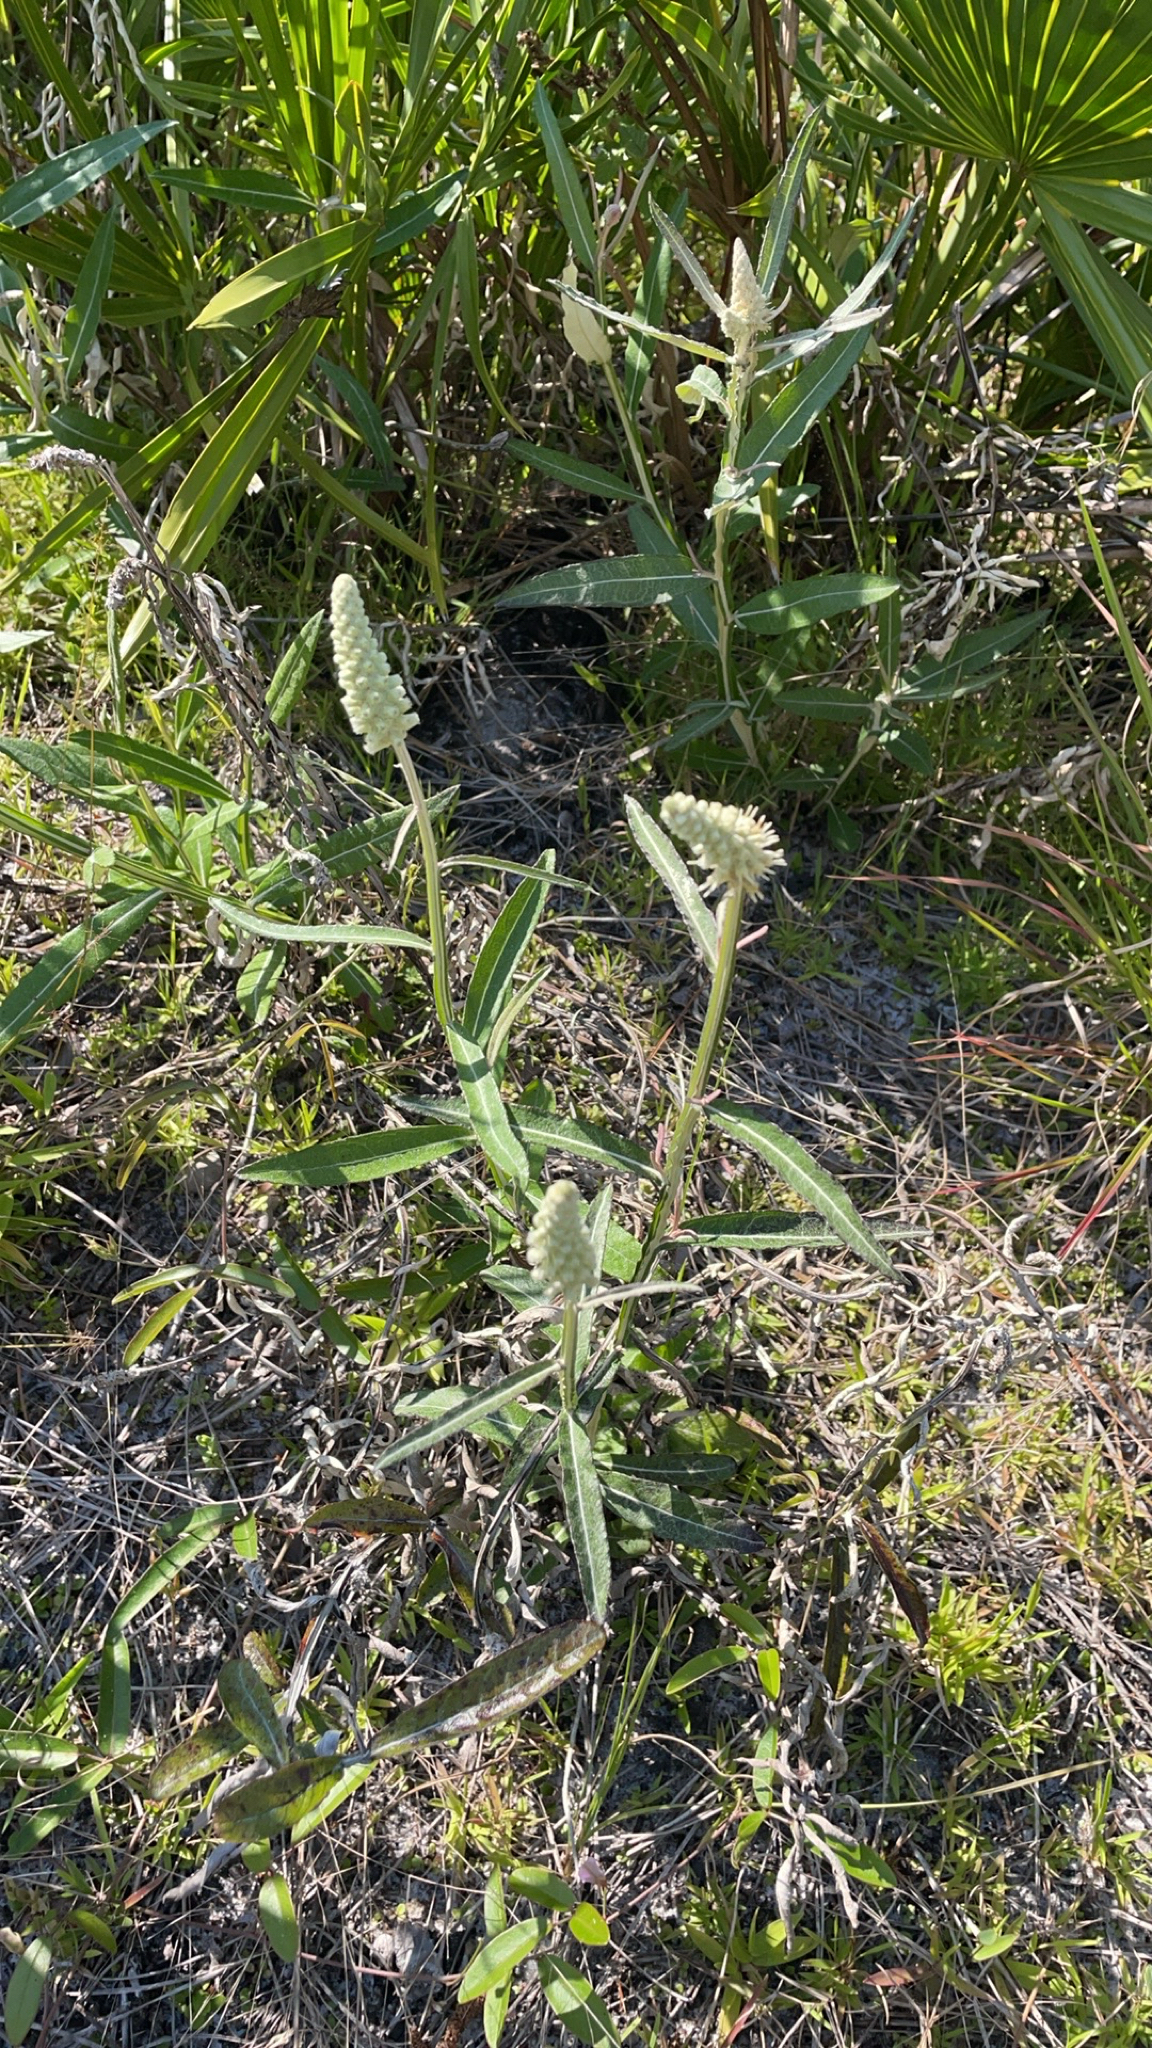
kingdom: Plantae
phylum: Tracheophyta
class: Magnoliopsida
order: Asterales
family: Asteraceae
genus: Pterocaulon
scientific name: Pterocaulon pycnostachyum
